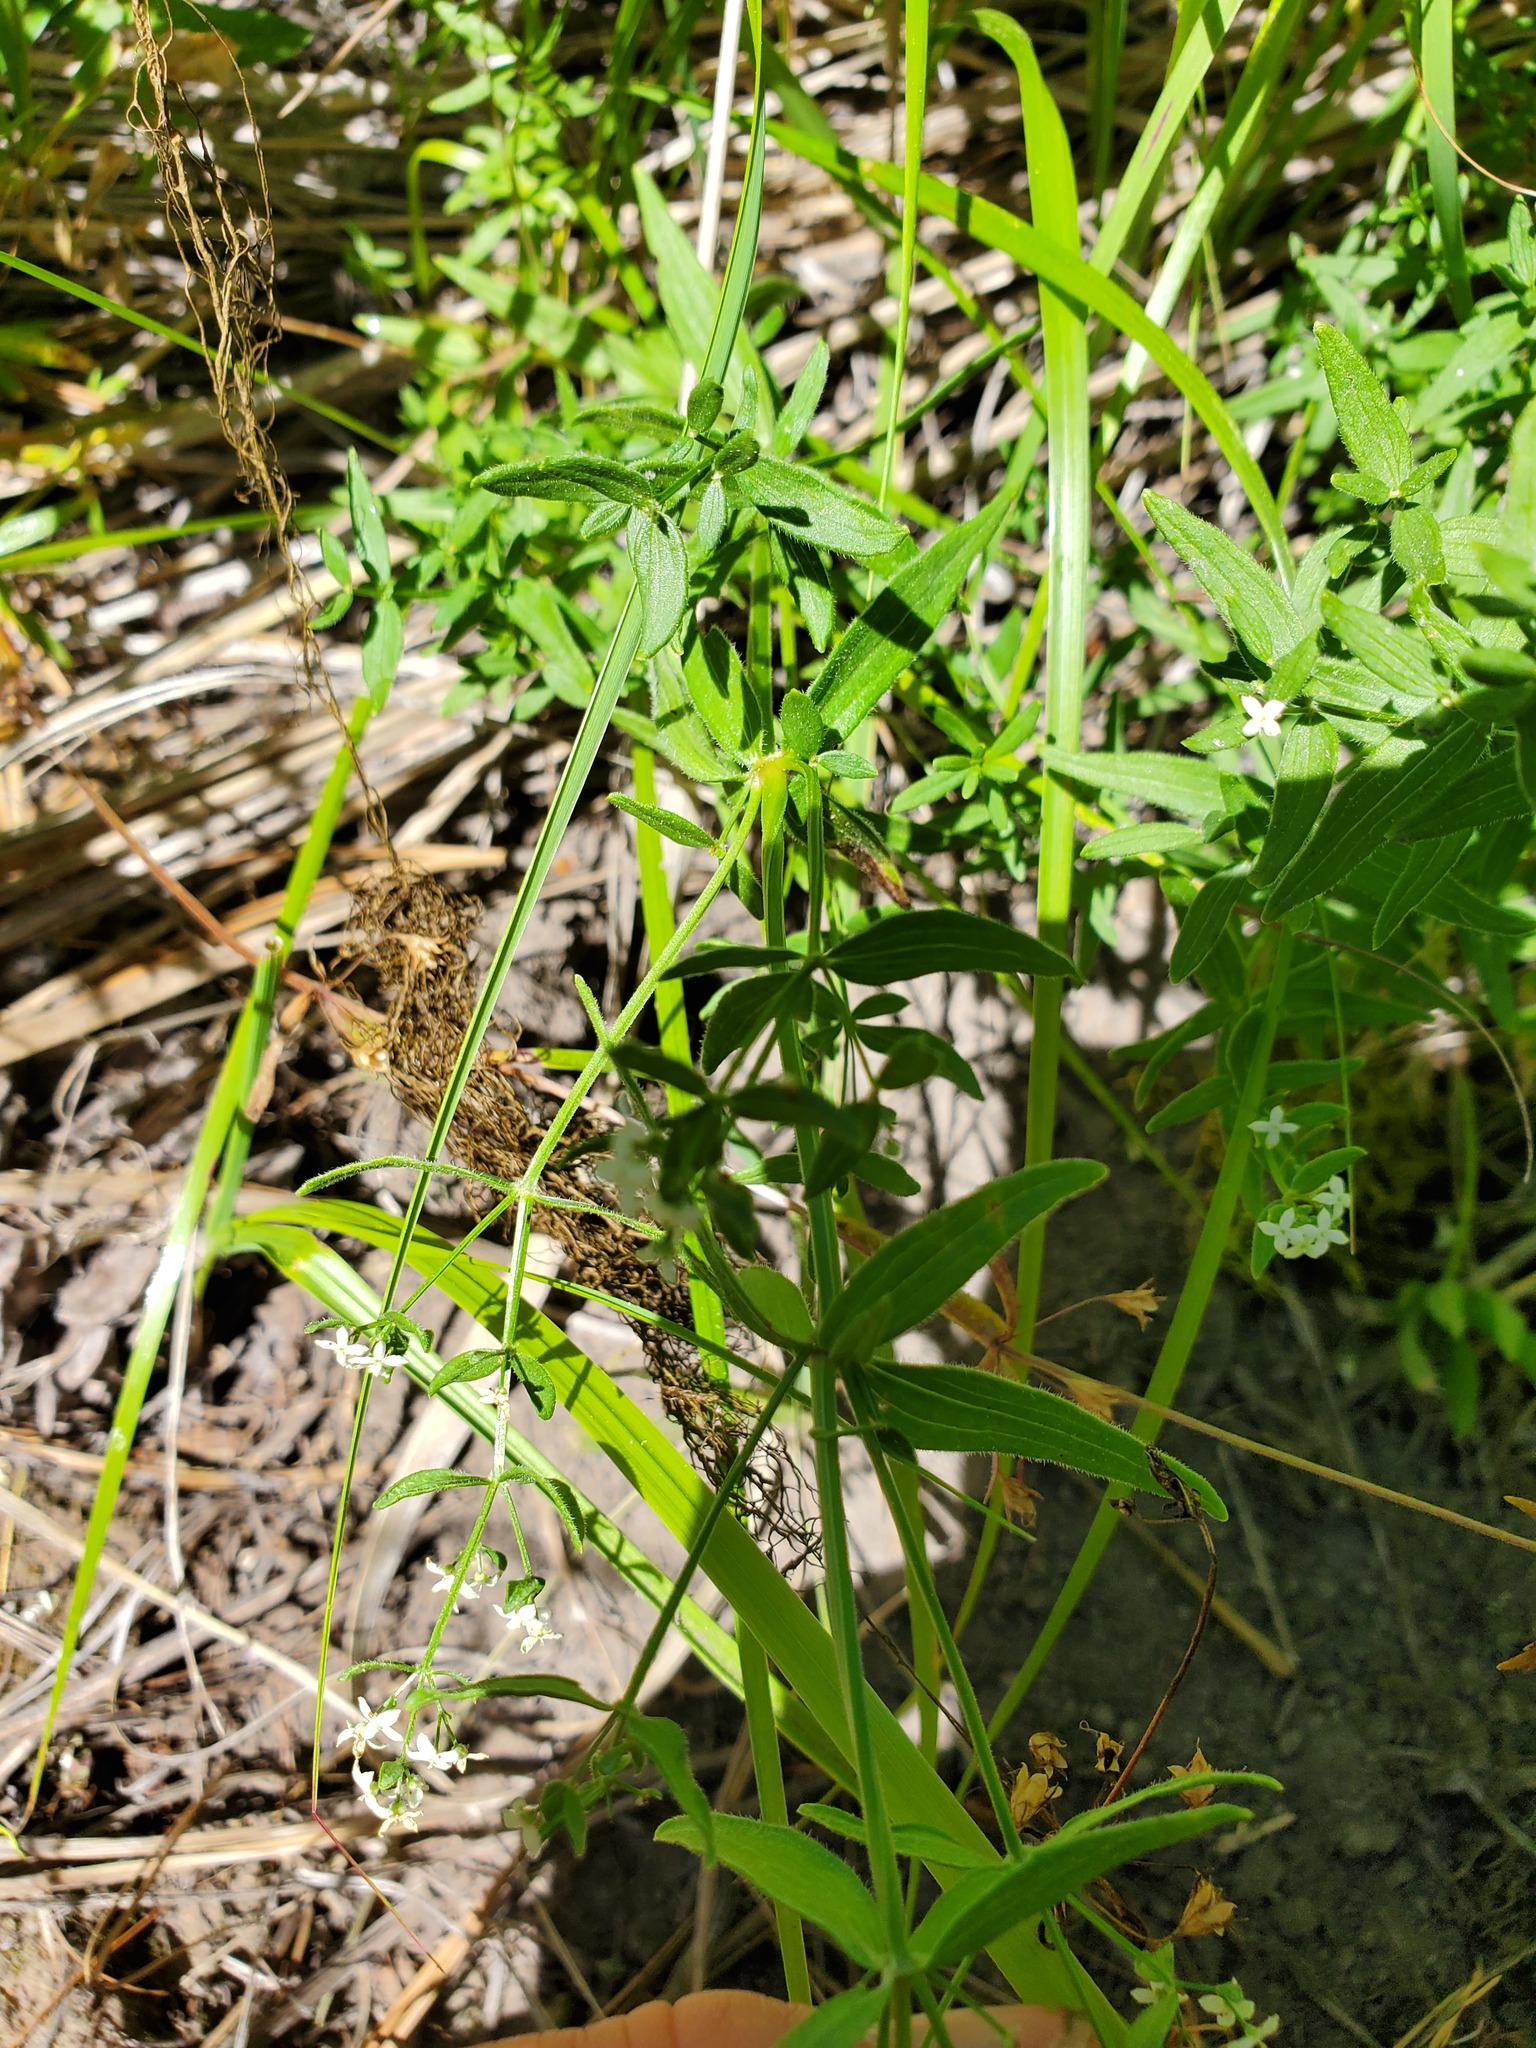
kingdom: Plantae
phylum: Tracheophyta
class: Magnoliopsida
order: Gentianales
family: Rubiaceae
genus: Galium
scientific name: Galium boreale
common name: Northern bedstraw
